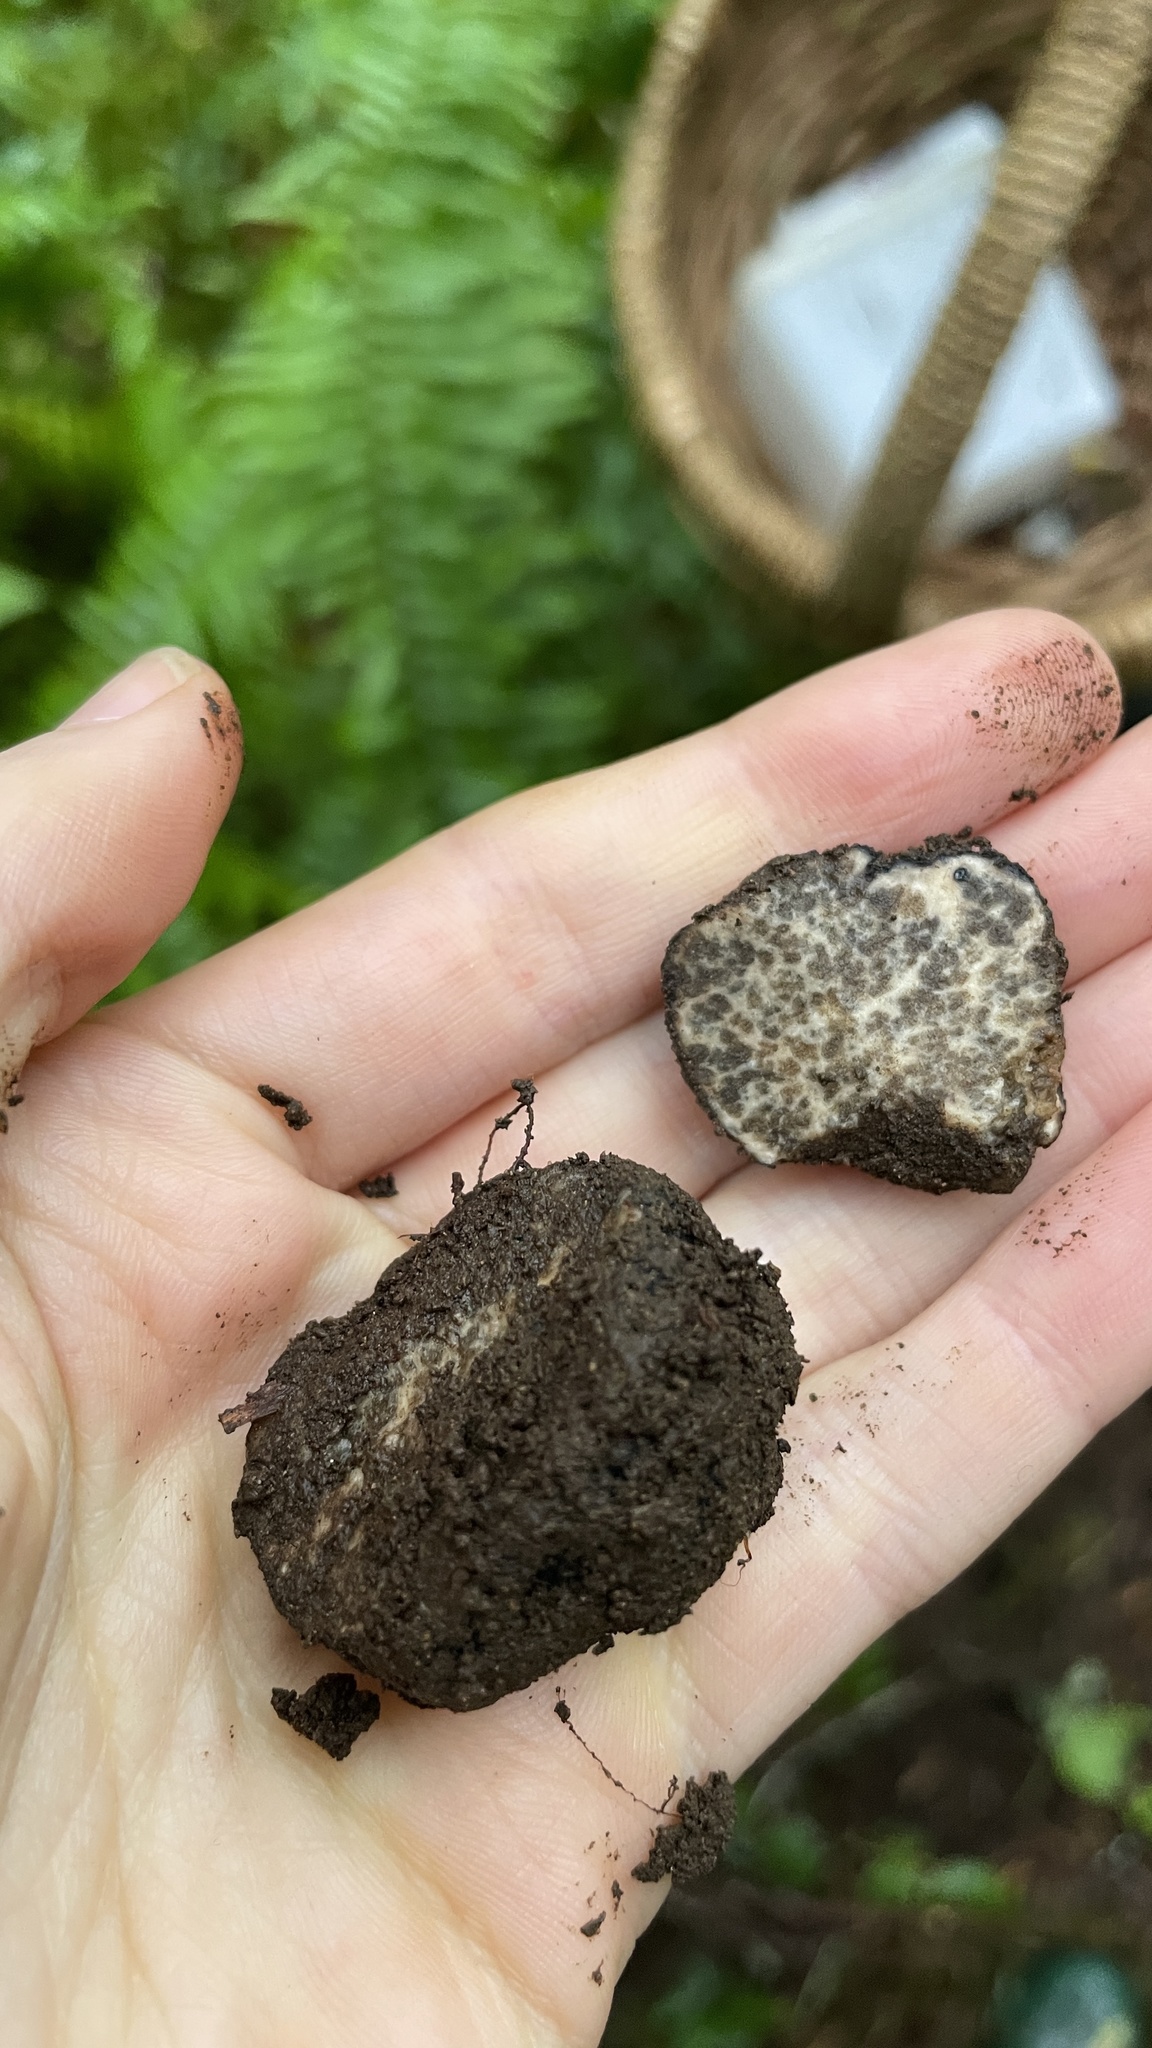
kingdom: Fungi
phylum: Ascomycota
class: Pezizomycetes
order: Pezizales
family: Morchellaceae
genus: Leucangium
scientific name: Leucangium carthusianum
